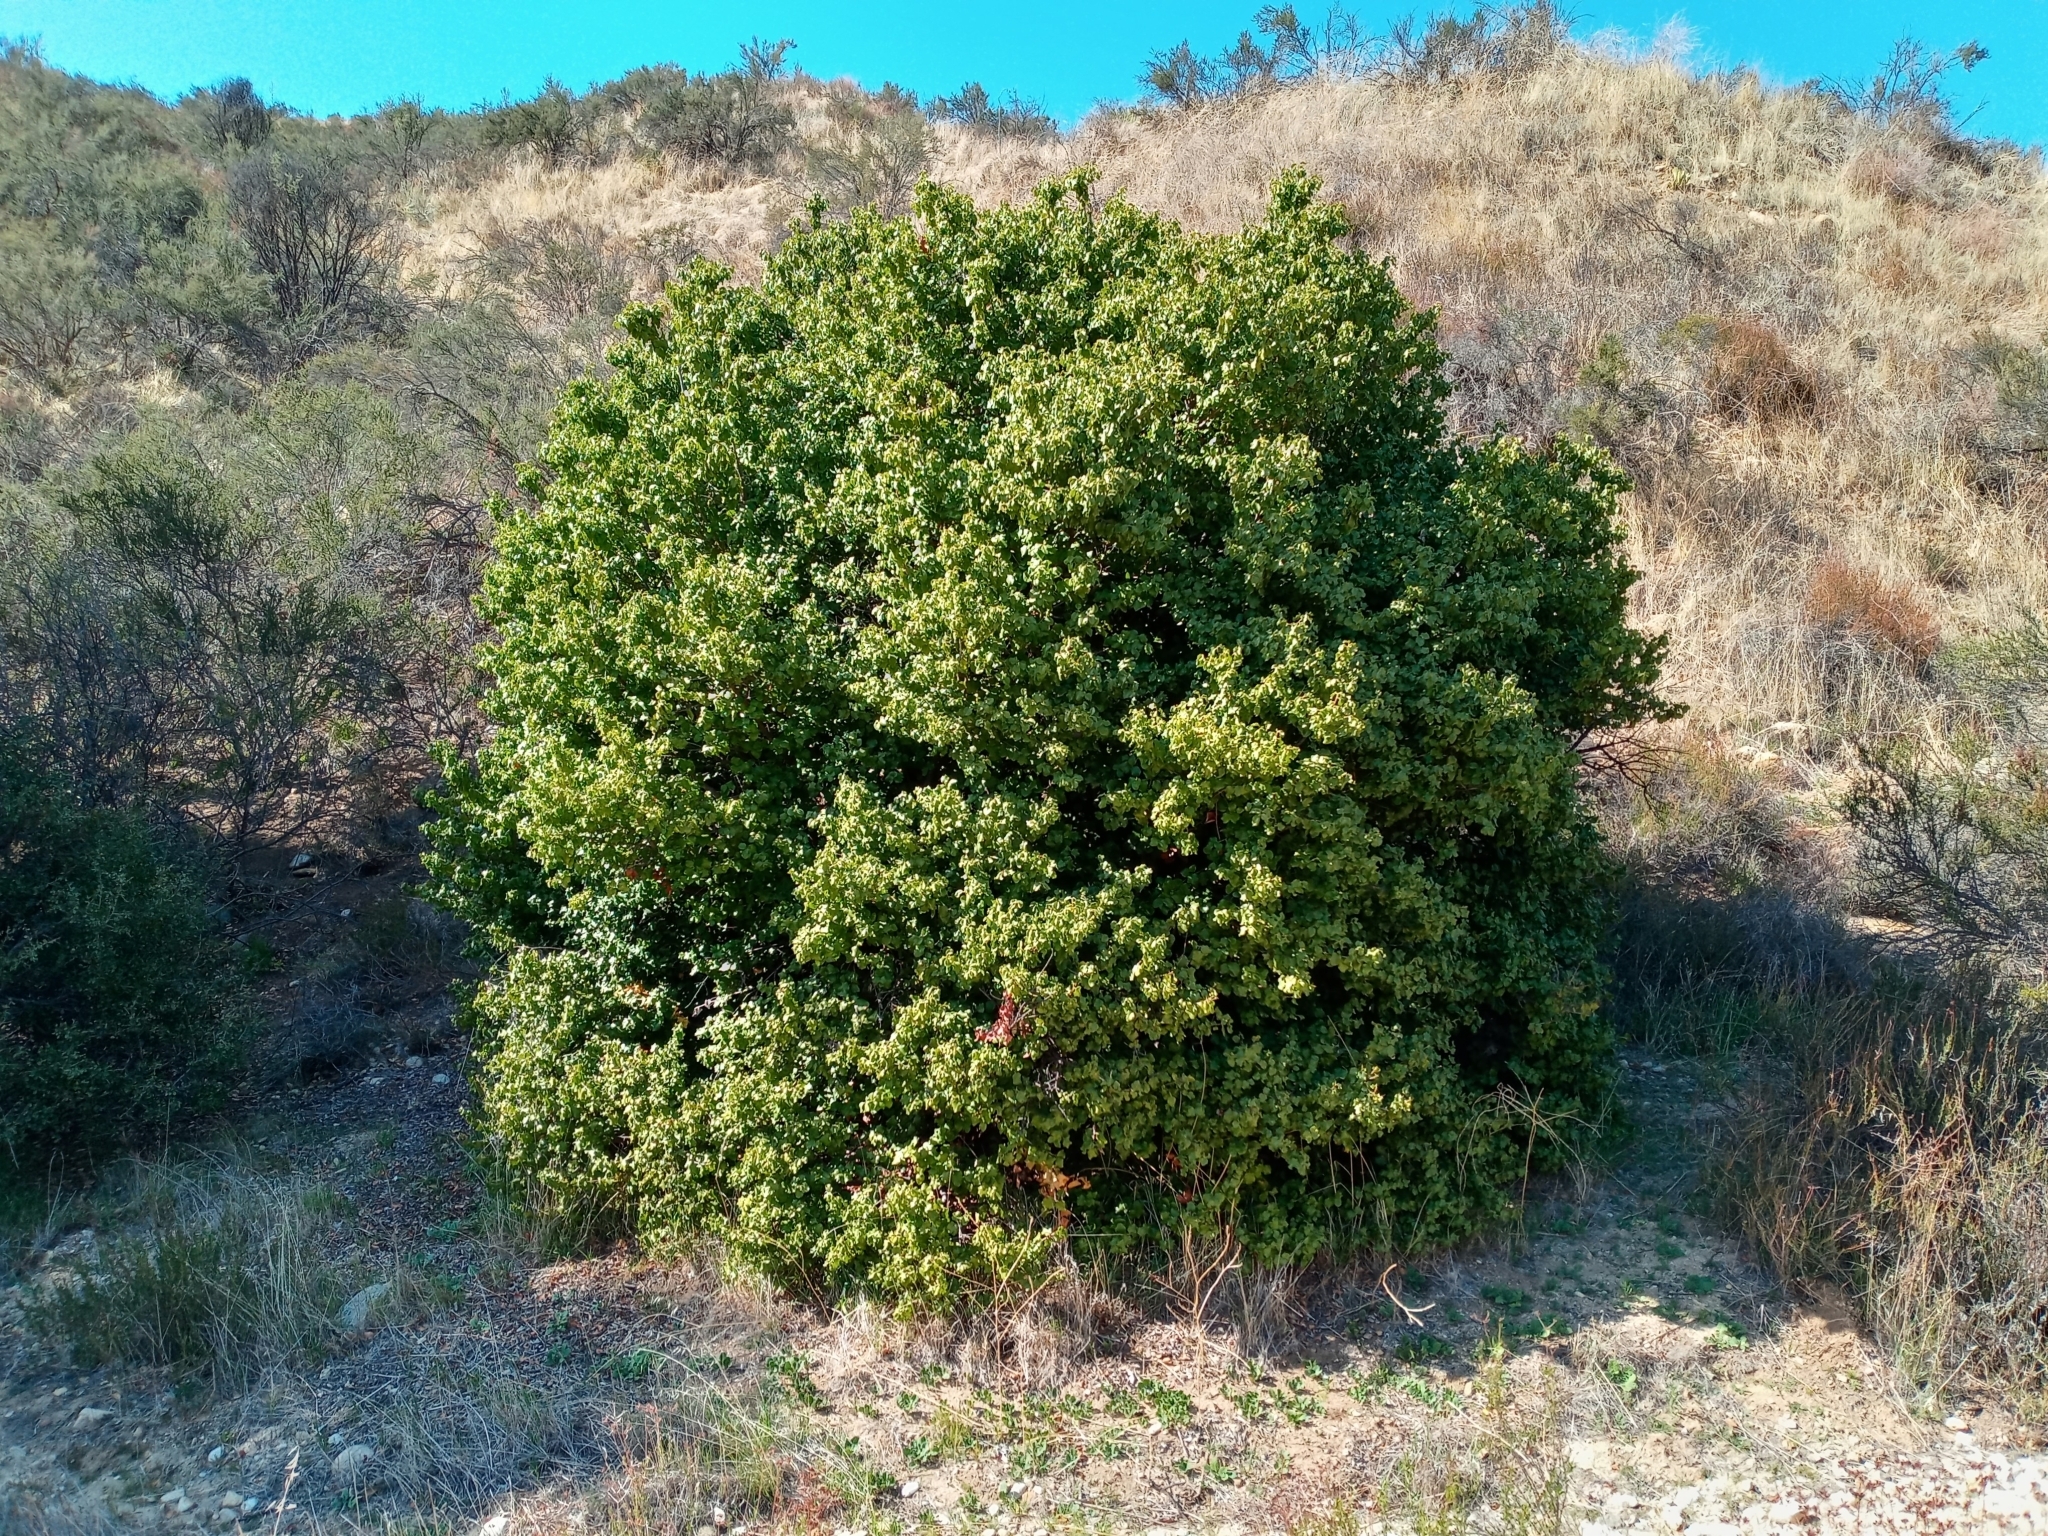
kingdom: Plantae
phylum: Tracheophyta
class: Magnoliopsida
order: Rosales
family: Rosaceae
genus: Prunus
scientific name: Prunus ilicifolia
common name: Hollyleaf cherry
